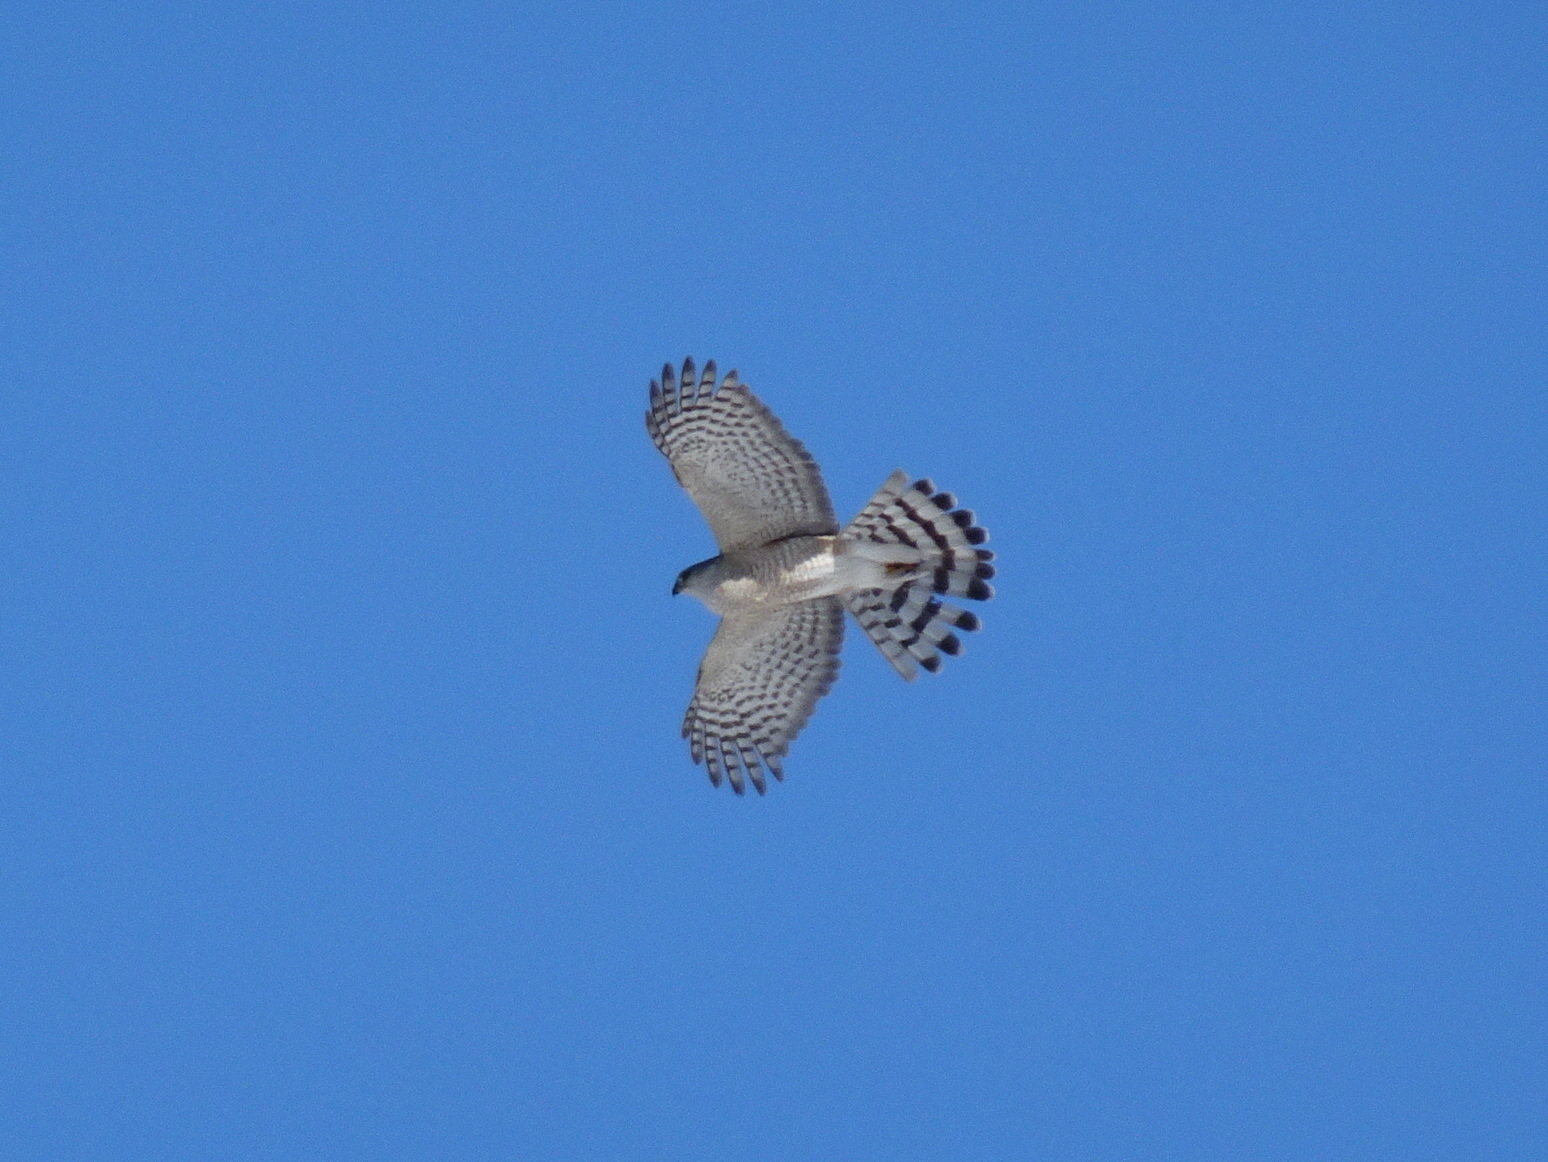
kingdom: Animalia
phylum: Chordata
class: Aves
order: Accipitriformes
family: Accipitridae
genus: Accipiter
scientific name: Accipiter striatus
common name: Sharp-shinned hawk
